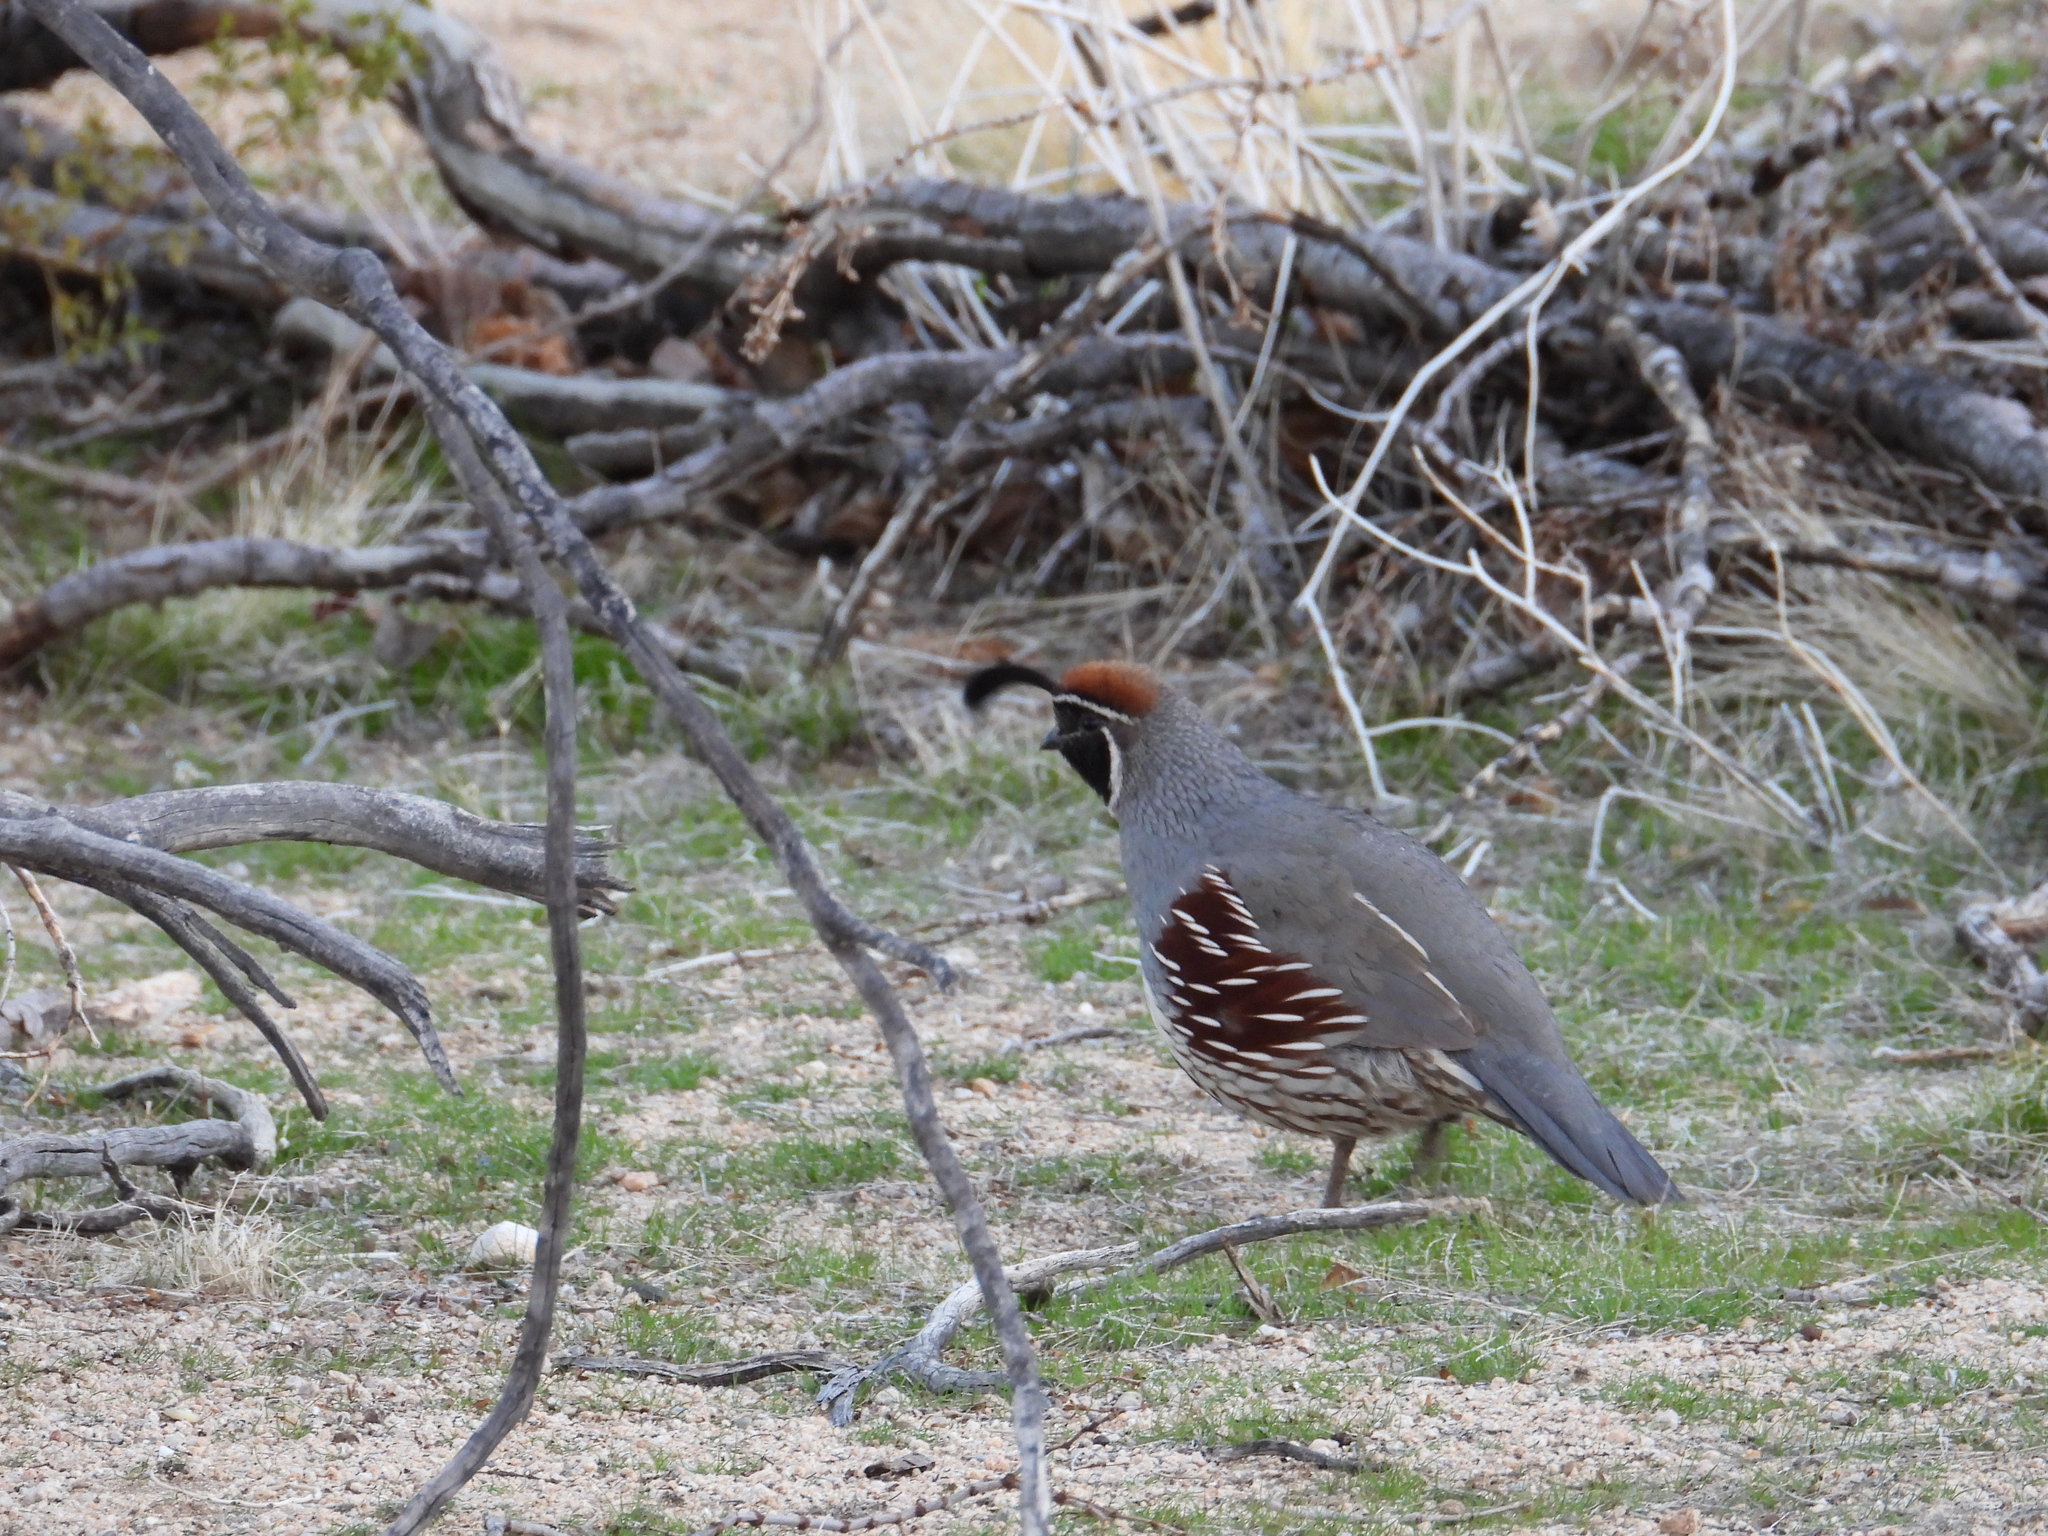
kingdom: Animalia
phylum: Chordata
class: Aves
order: Galliformes
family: Odontophoridae
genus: Callipepla
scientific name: Callipepla gambelii
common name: Gambel's quail
